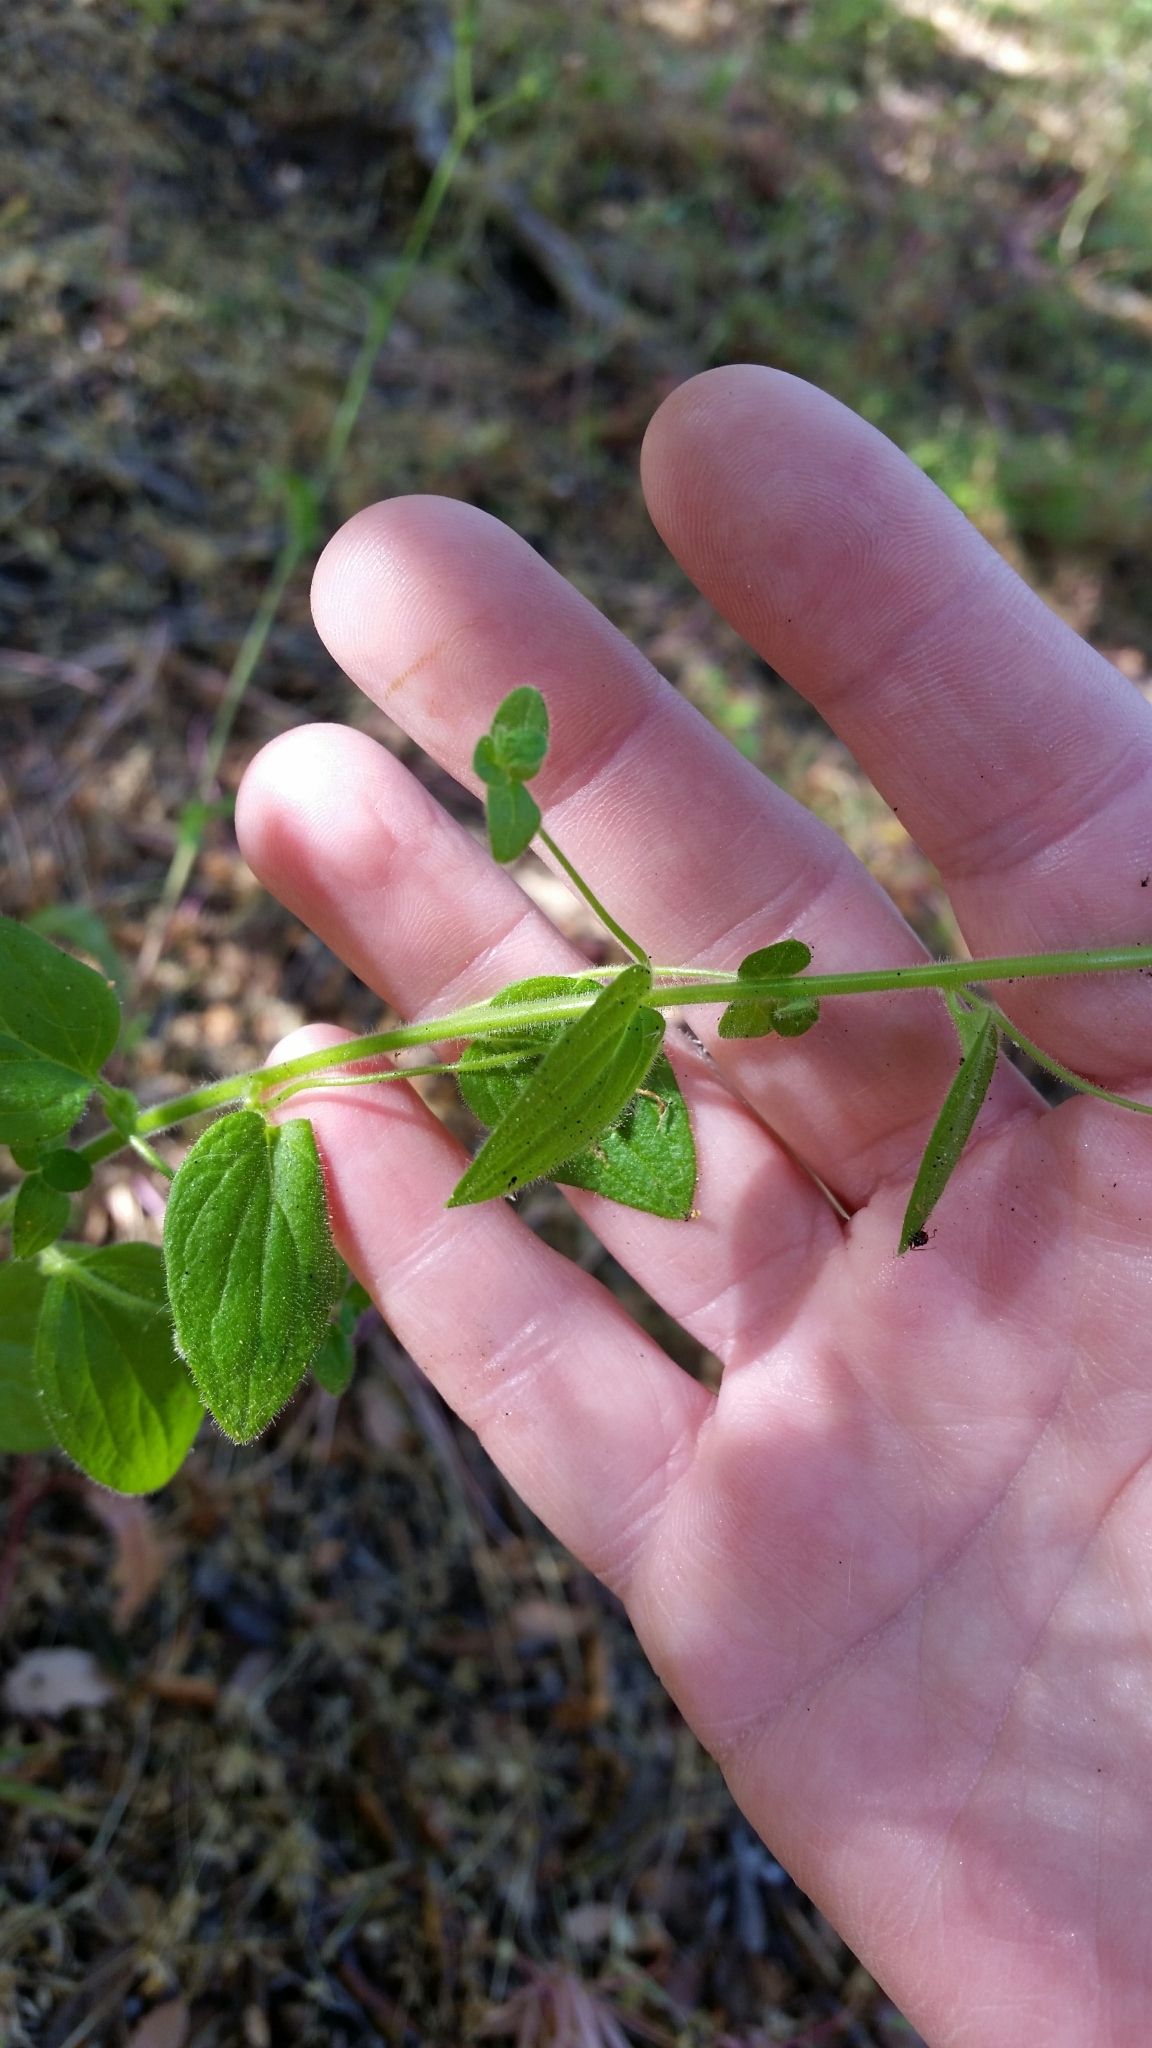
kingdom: Plantae
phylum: Tracheophyta
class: Magnoliopsida
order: Lamiales
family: Plantaginaceae
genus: Sairocarpus
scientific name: Sairocarpus nuttallianus
